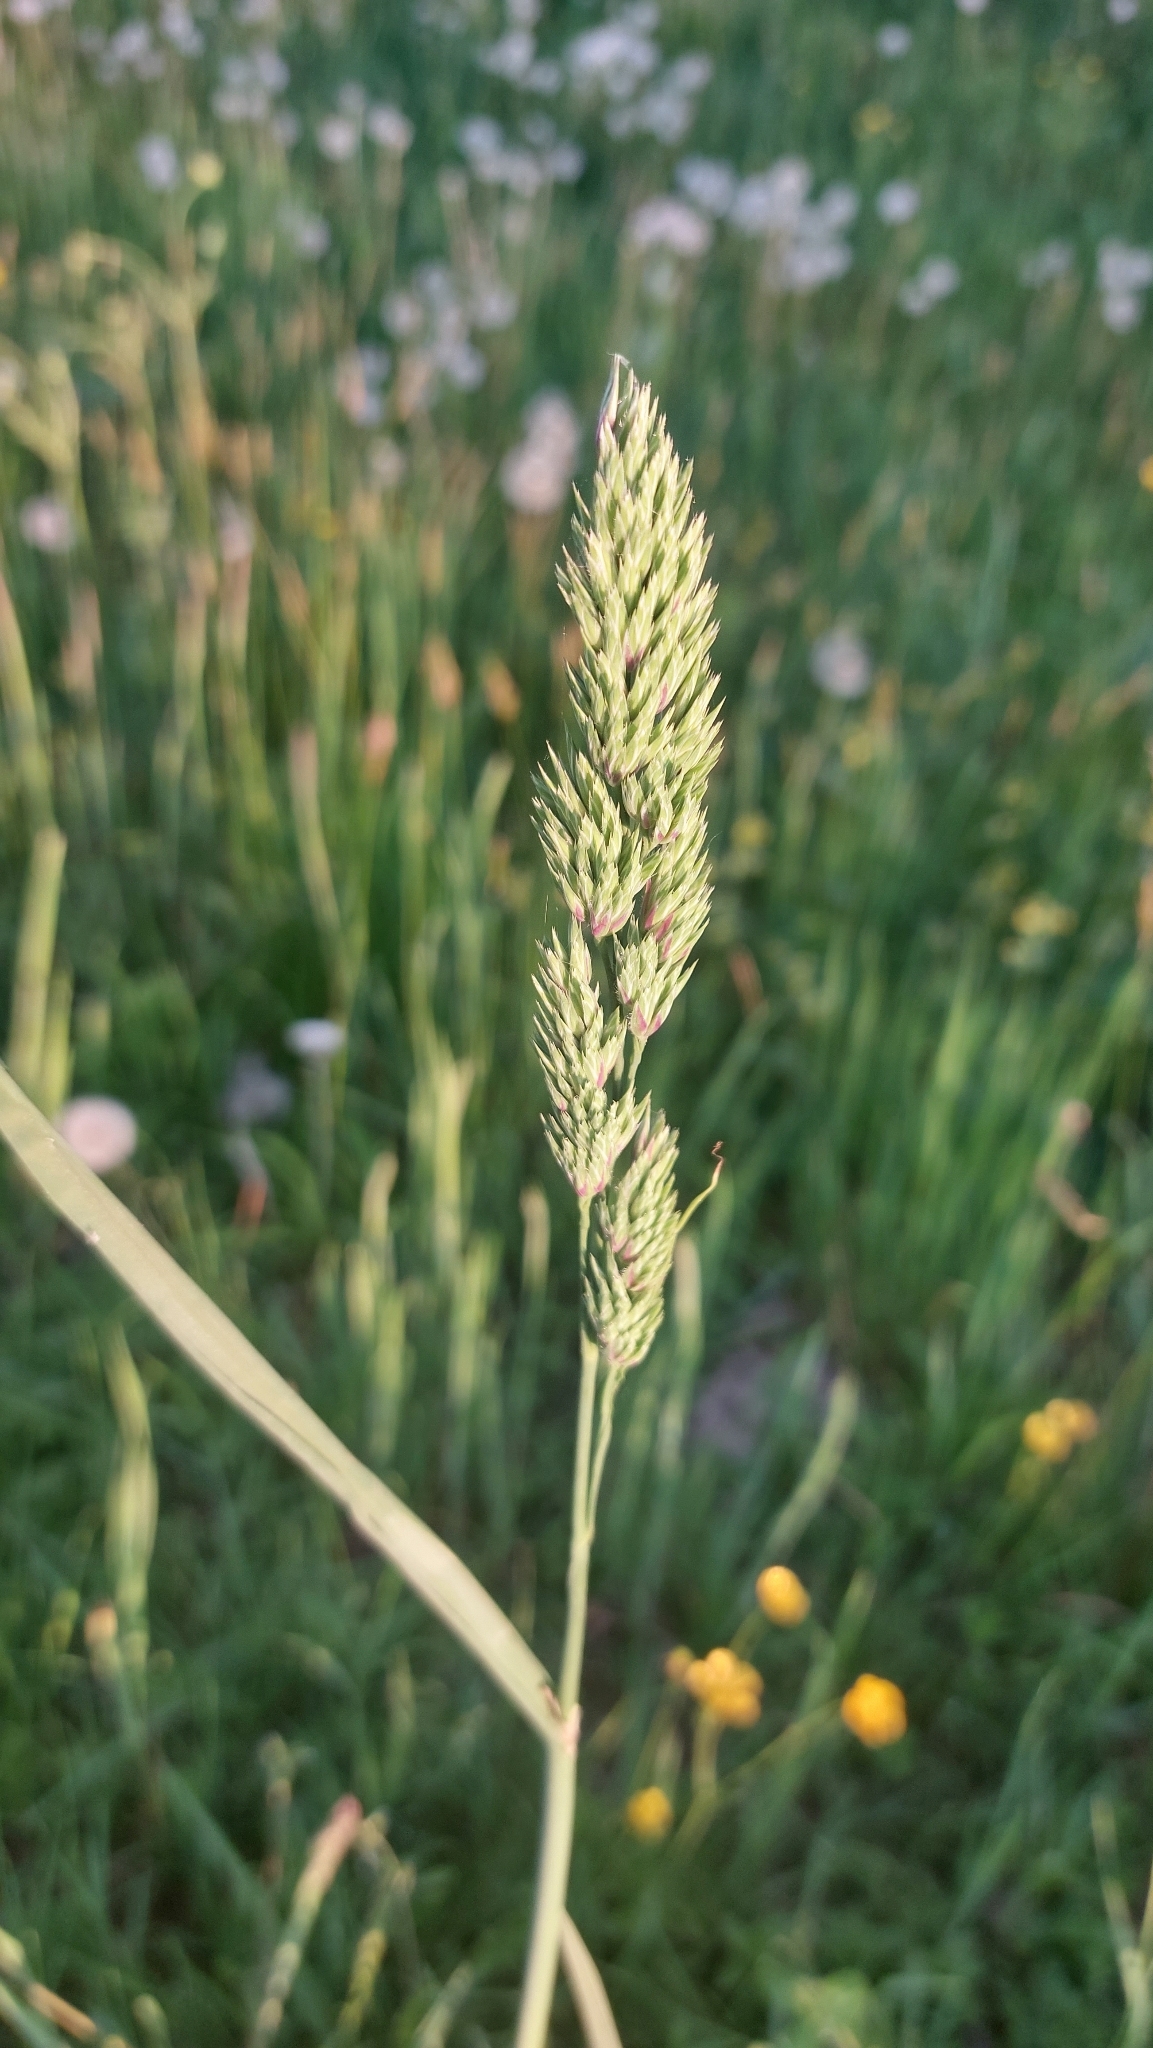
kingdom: Plantae
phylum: Tracheophyta
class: Liliopsida
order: Poales
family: Poaceae
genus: Dactylis
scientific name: Dactylis glomerata
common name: Orchardgrass
